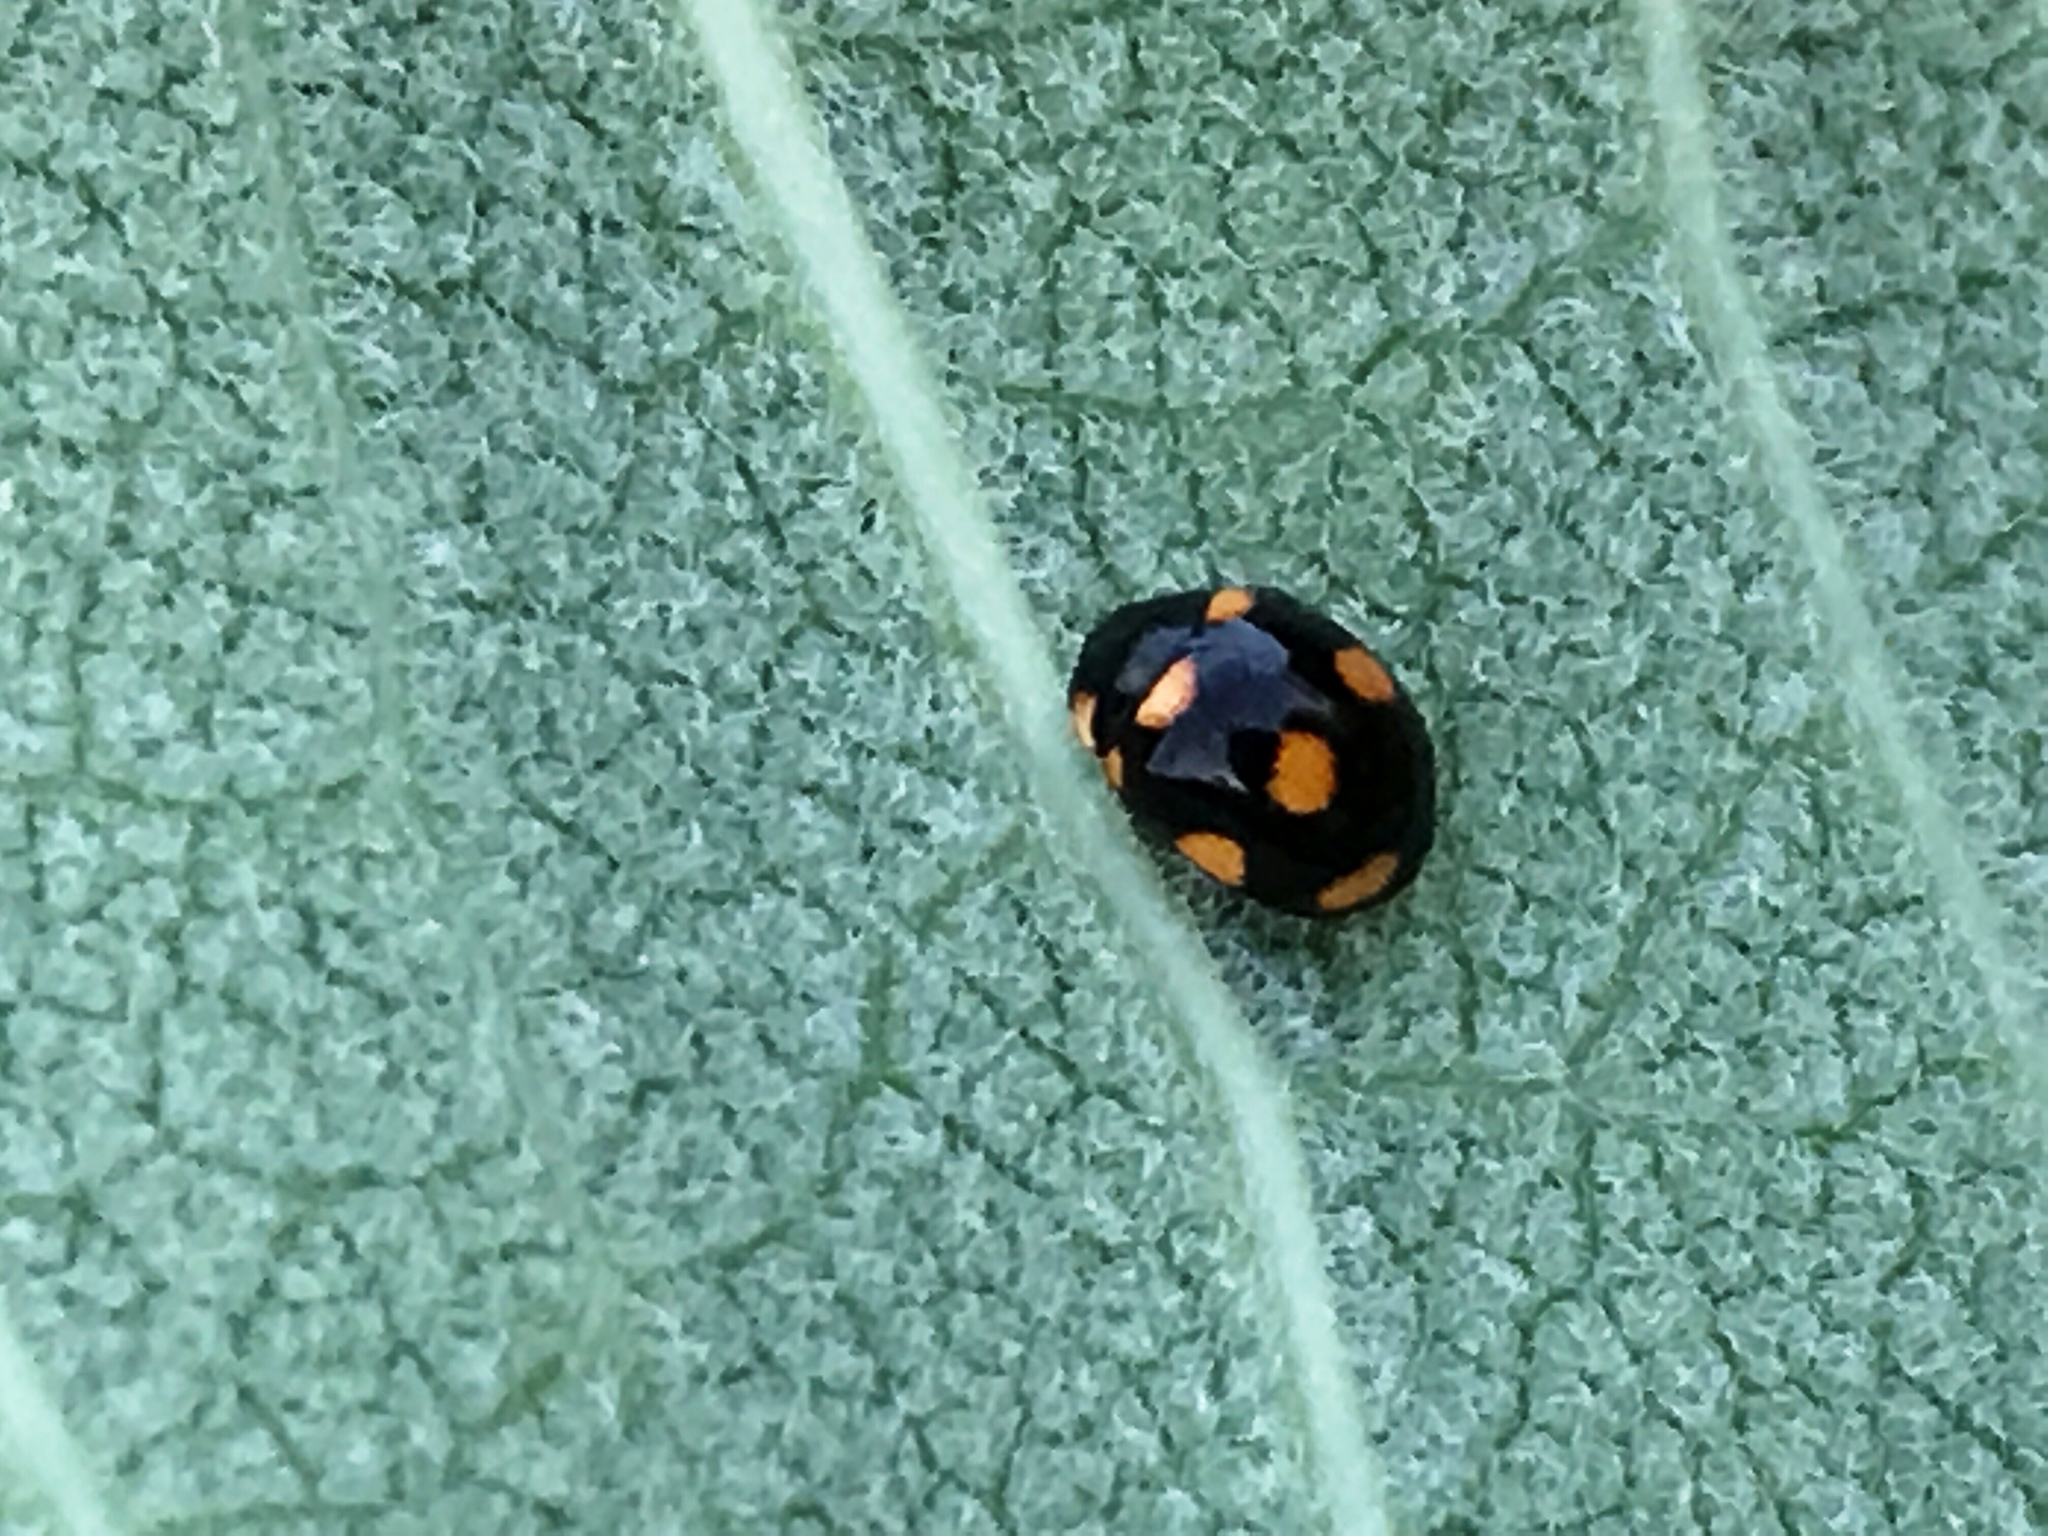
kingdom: Animalia
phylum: Arthropoda
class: Insecta
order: Coleoptera
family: Coccinellidae
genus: Brachiacantha
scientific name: Brachiacantha ursina
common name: Ursine spurleg lady beetle
